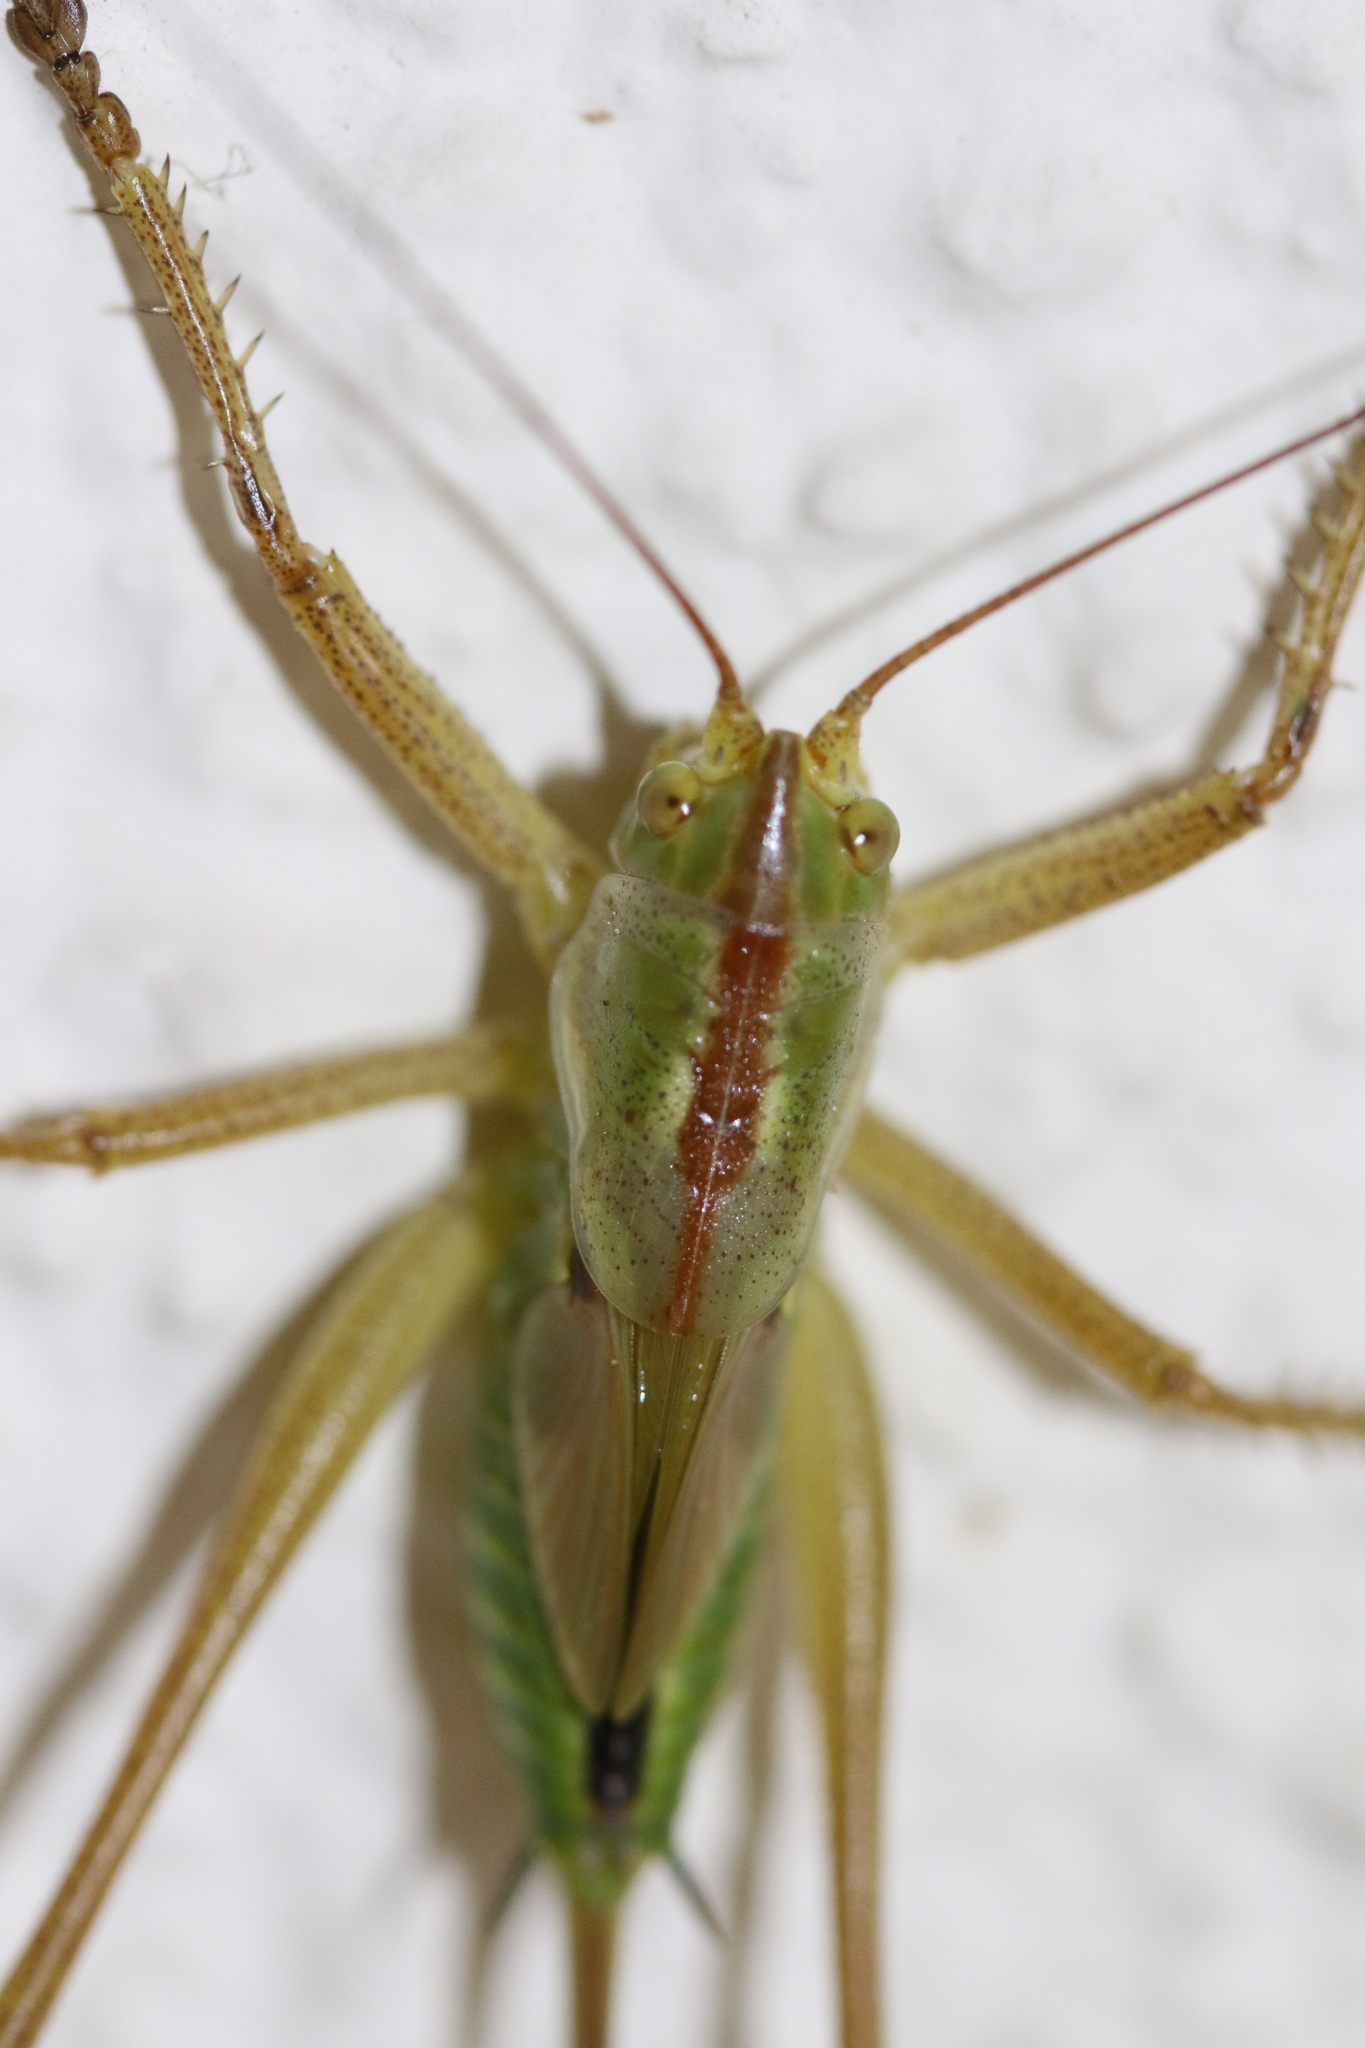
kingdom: Animalia
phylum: Arthropoda
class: Insecta
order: Orthoptera
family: Tettigoniidae
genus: Tettigonia
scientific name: Tettigonia viridissima
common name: Great green bush-cricket
